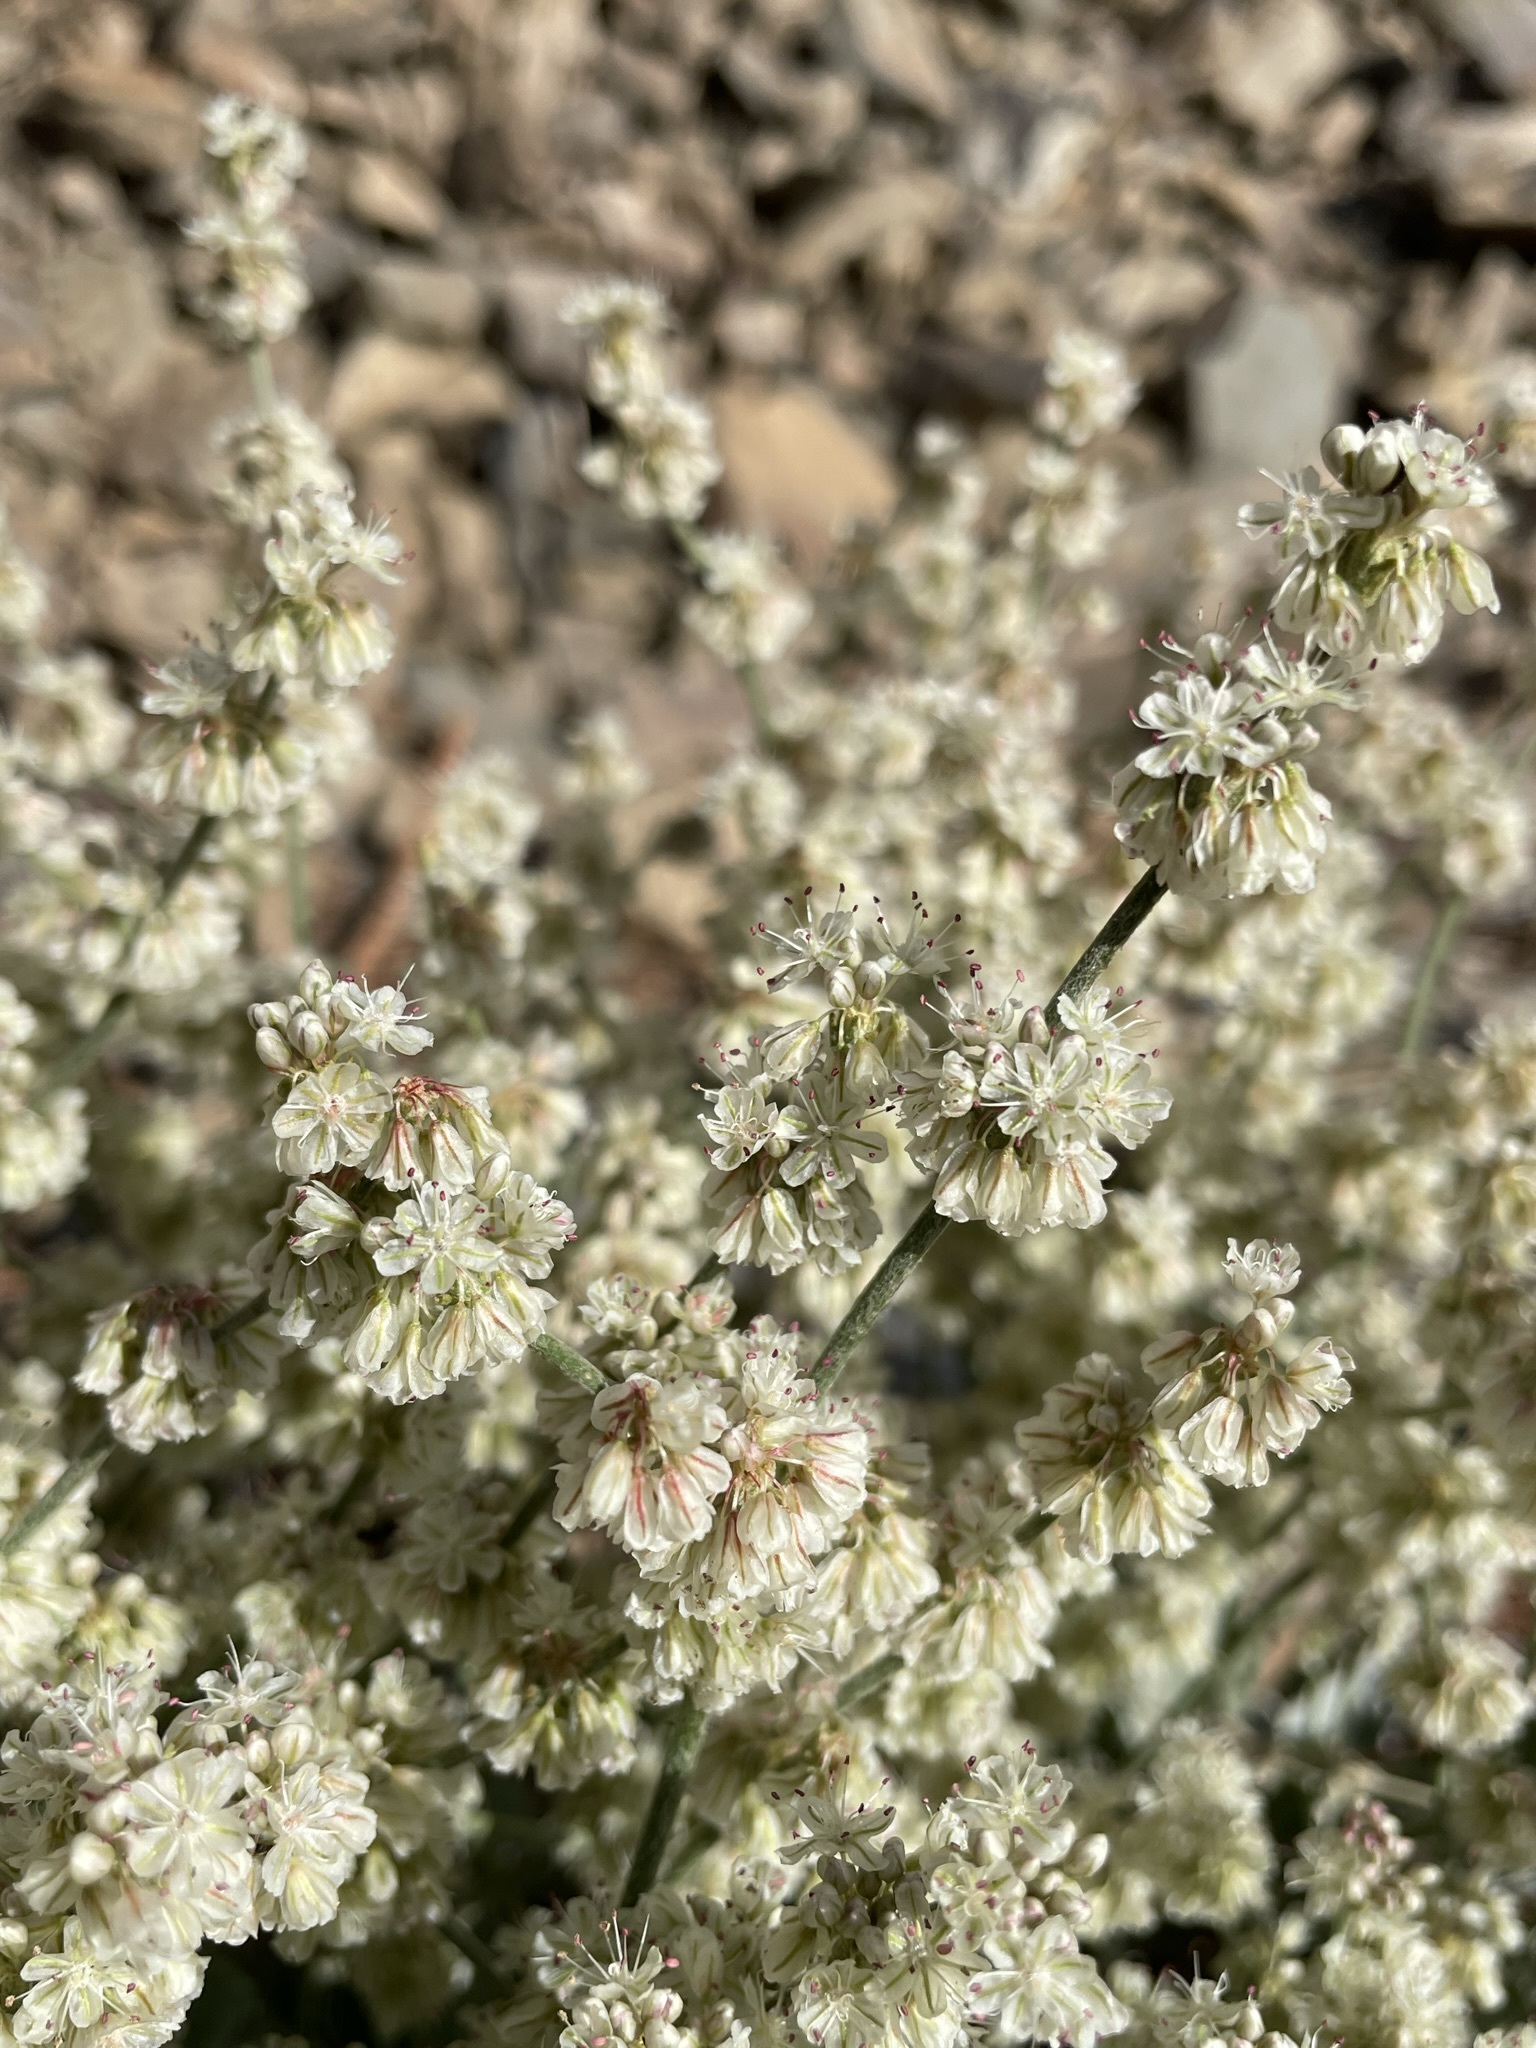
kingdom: Plantae
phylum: Tracheophyta
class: Magnoliopsida
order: Caryophyllales
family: Polygonaceae
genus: Eriogonum
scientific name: Eriogonum rupinum
